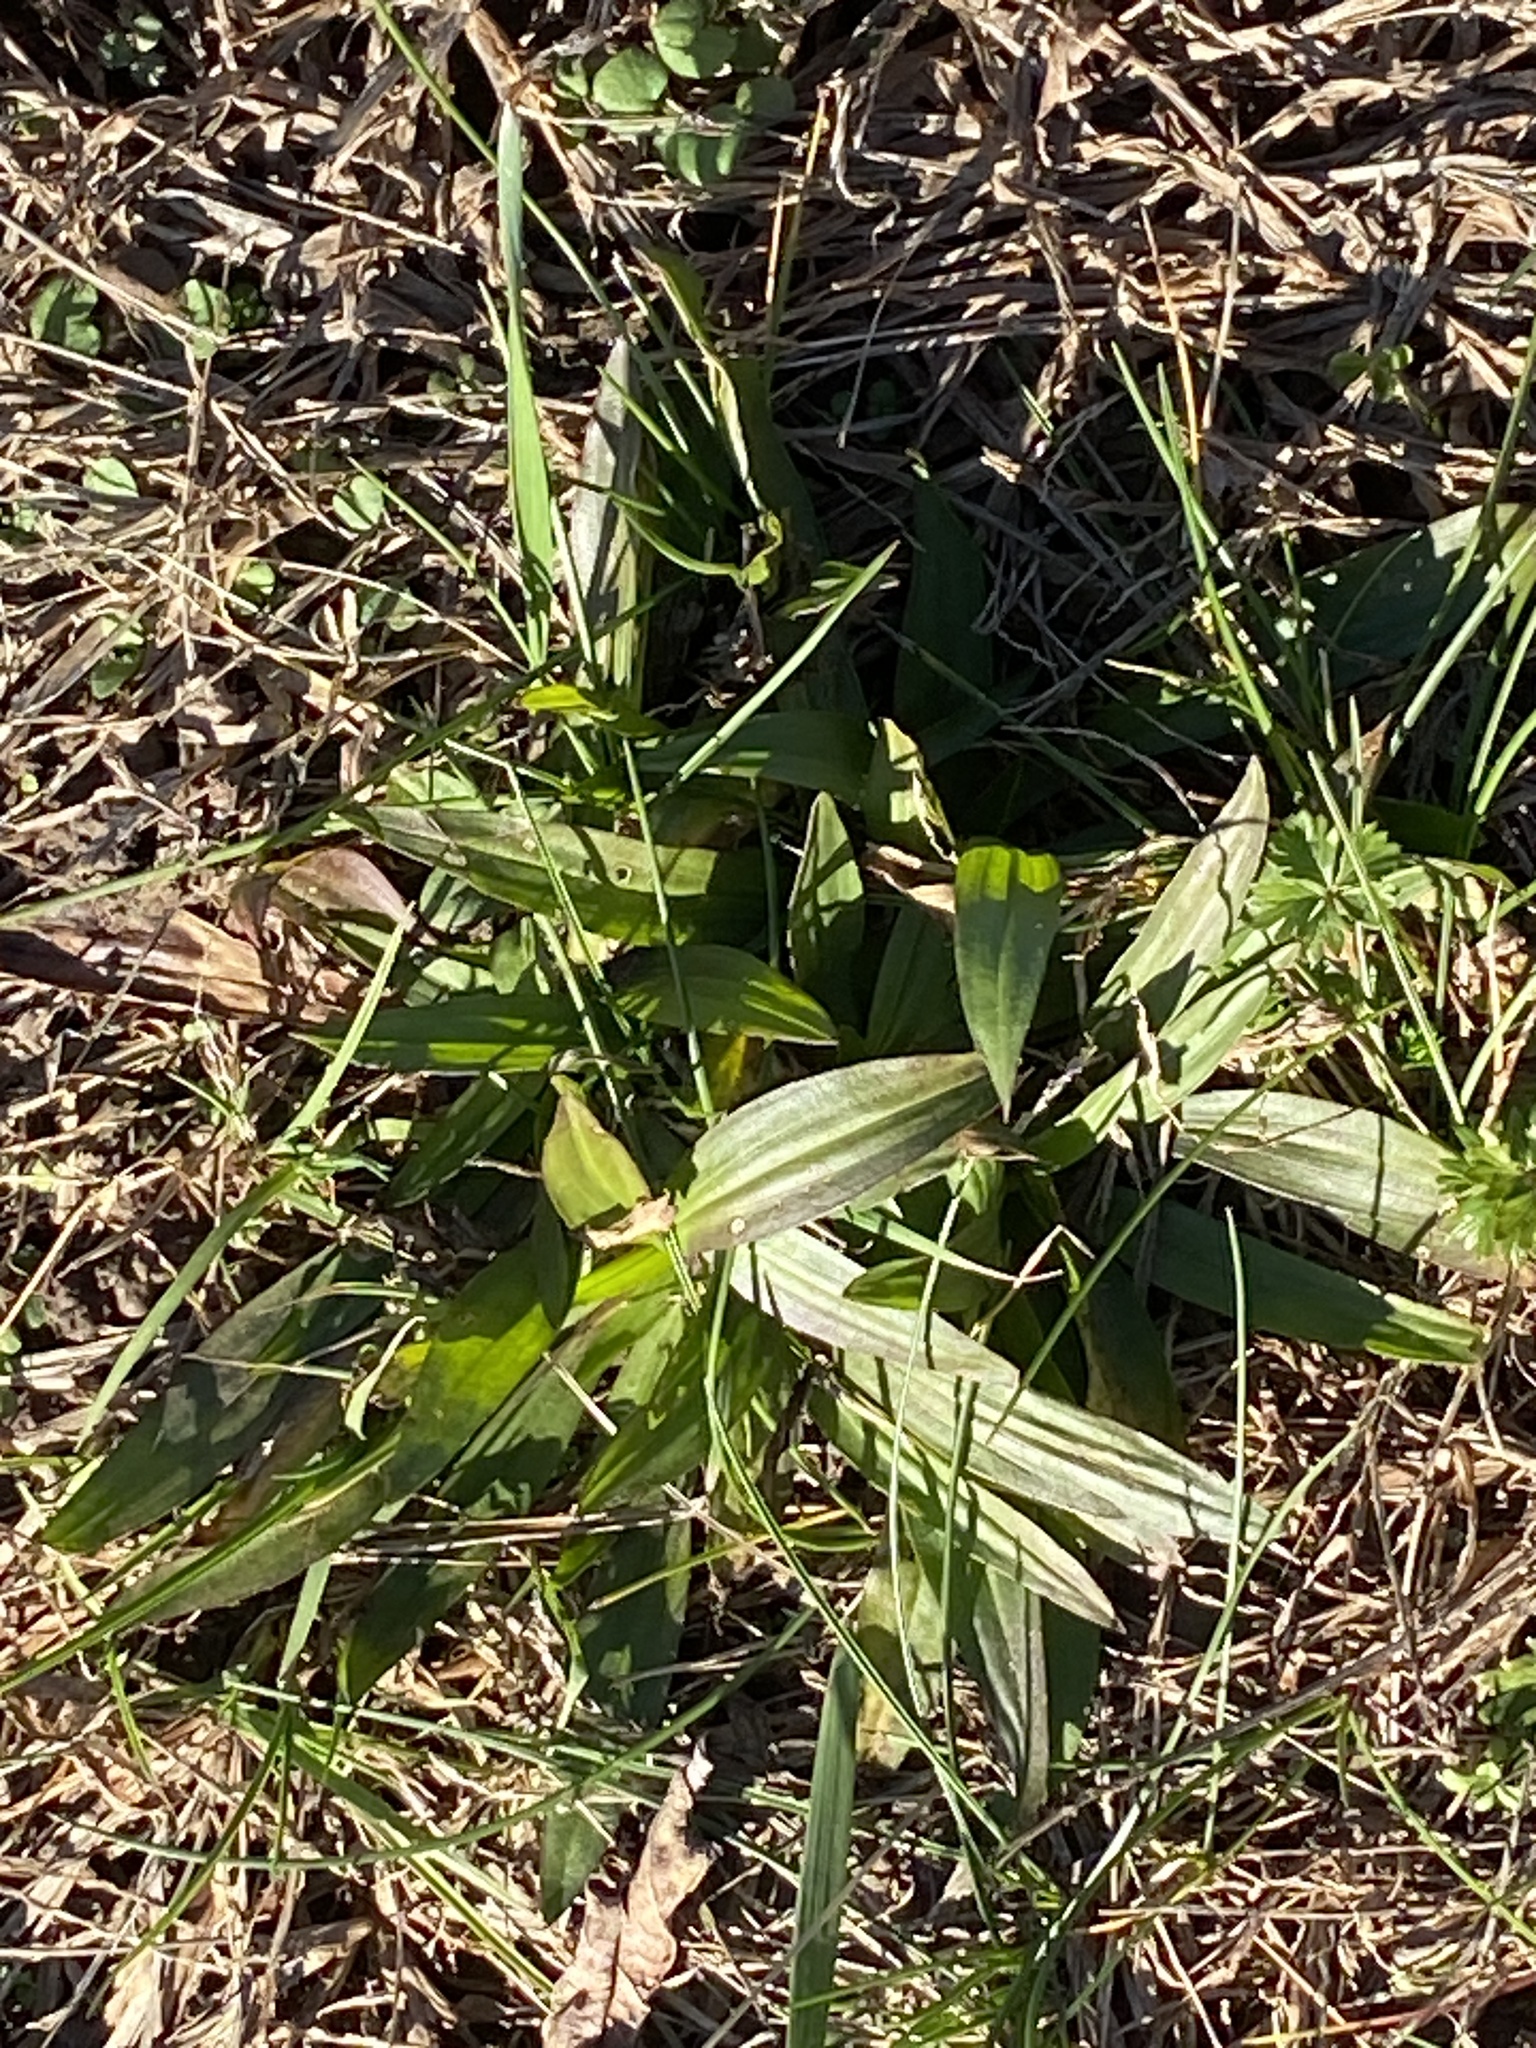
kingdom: Plantae
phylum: Tracheophyta
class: Magnoliopsida
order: Lamiales
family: Plantaginaceae
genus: Plantago
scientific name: Plantago lanceolata
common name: Ribwort plantain
